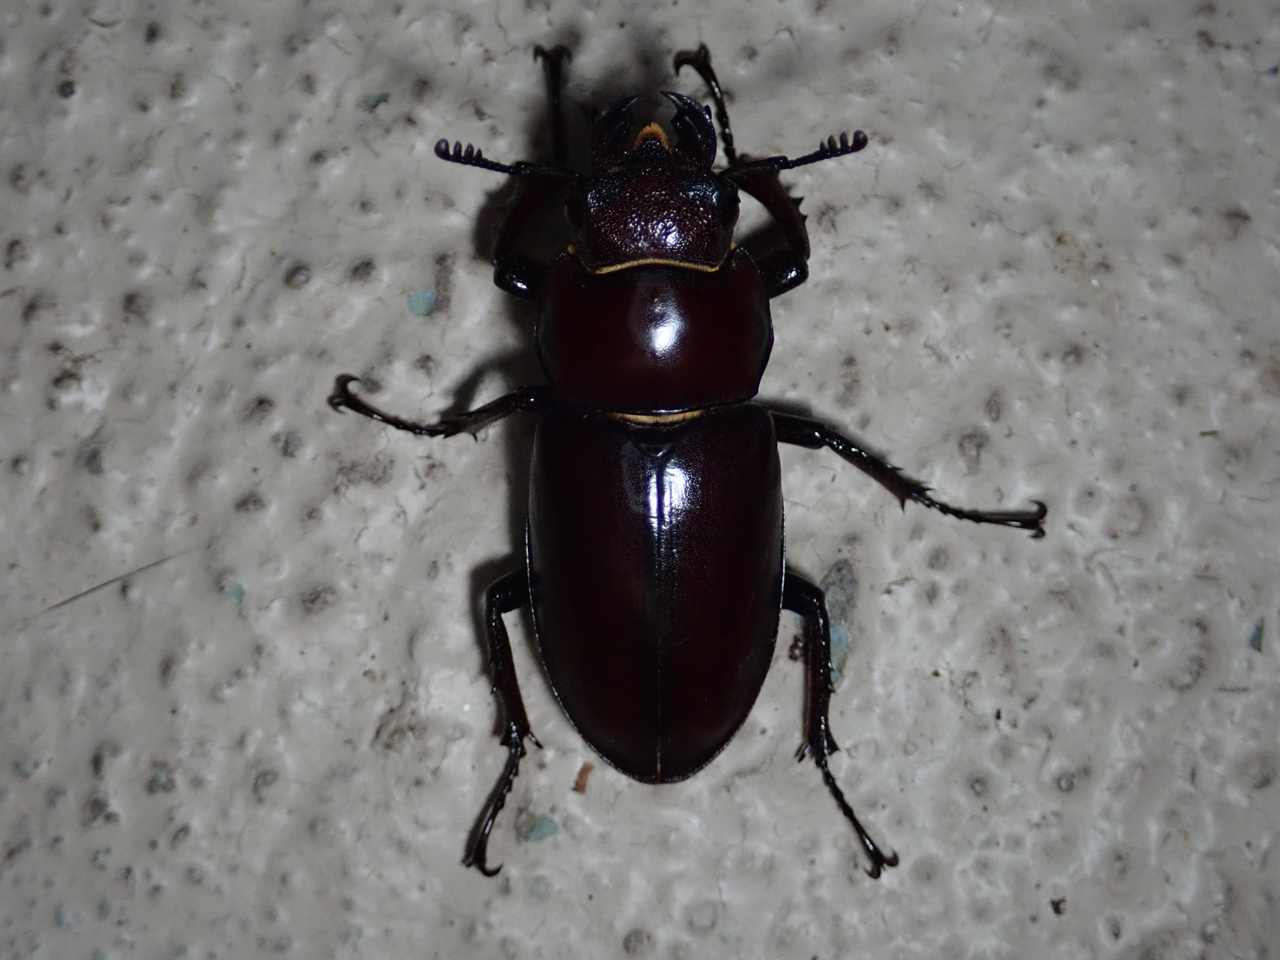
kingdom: Animalia
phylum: Arthropoda
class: Insecta
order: Coleoptera
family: Lucanidae
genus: Lucanus
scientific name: Lucanus elaphus
